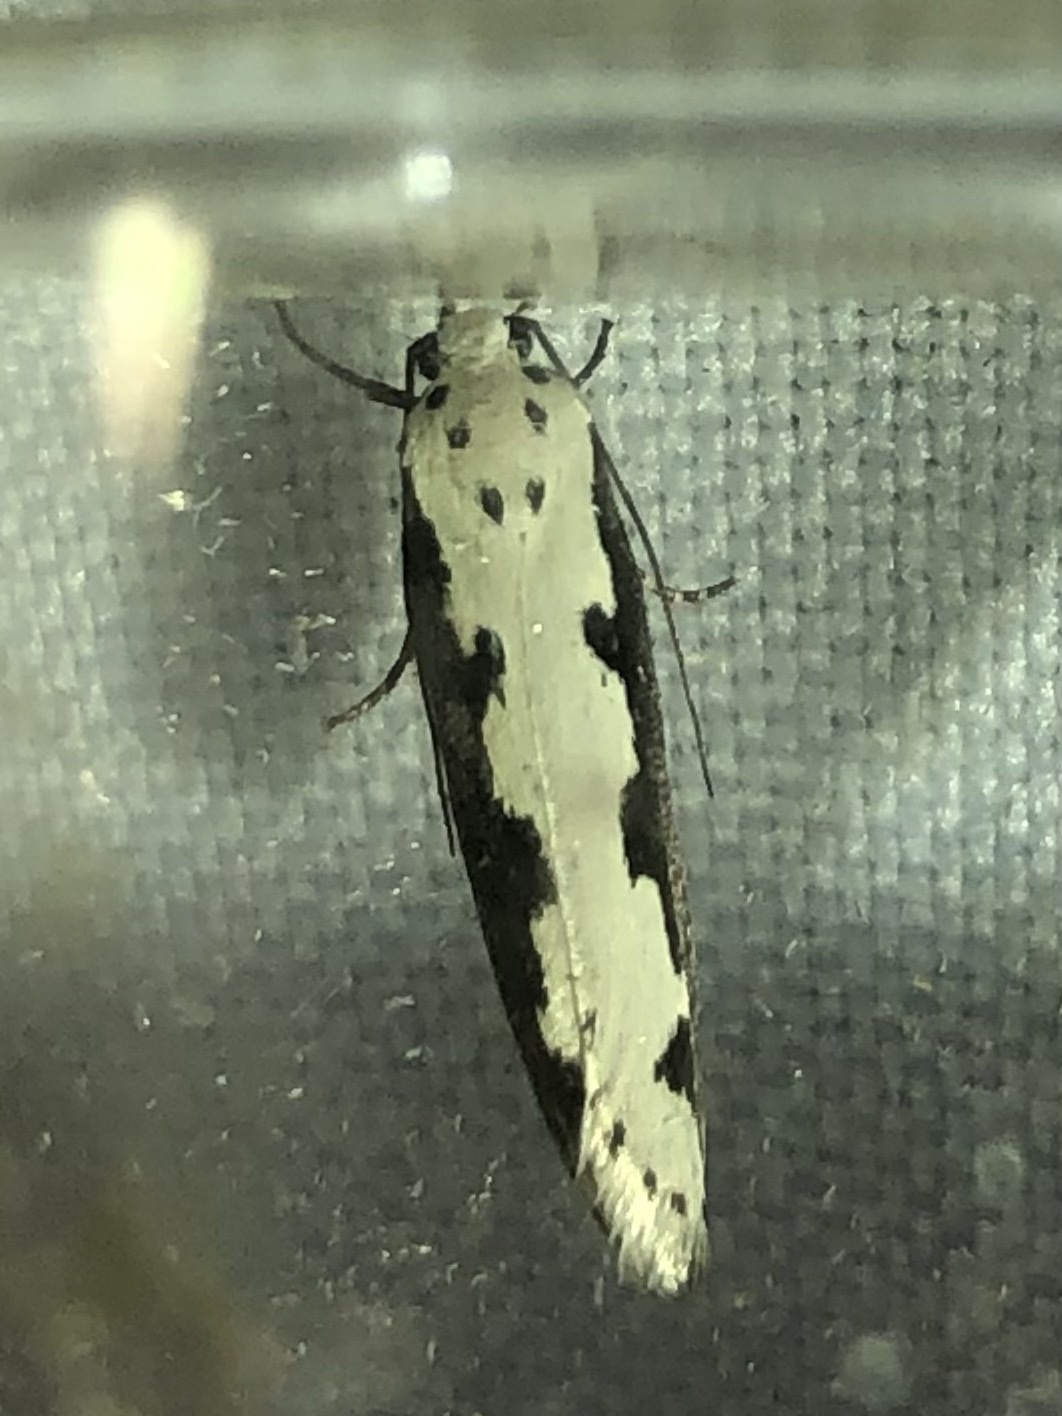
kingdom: Animalia
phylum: Arthropoda
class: Insecta
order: Lepidoptera
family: Ethmiidae
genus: Ethmia
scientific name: Ethmia bipunctella
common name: Bordered ermel
